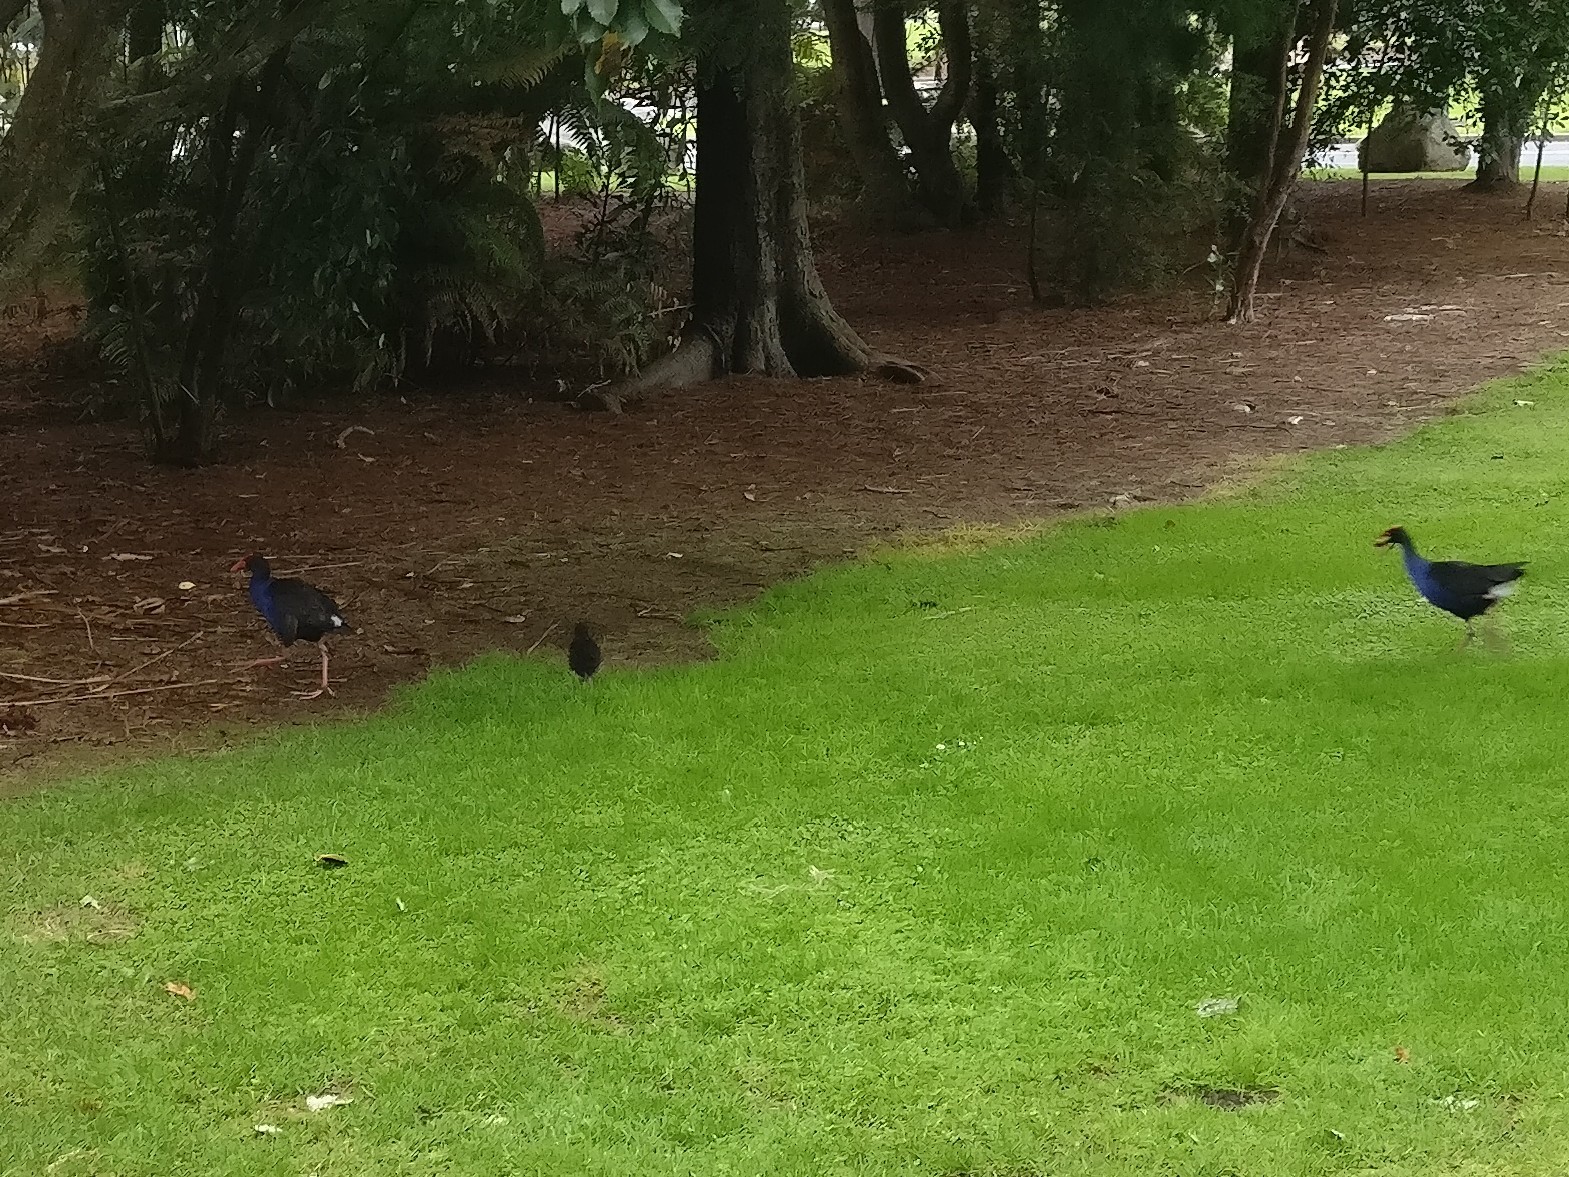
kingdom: Animalia
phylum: Chordata
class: Aves
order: Gruiformes
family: Rallidae
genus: Porphyrio
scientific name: Porphyrio melanotus
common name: Australasian swamphen
